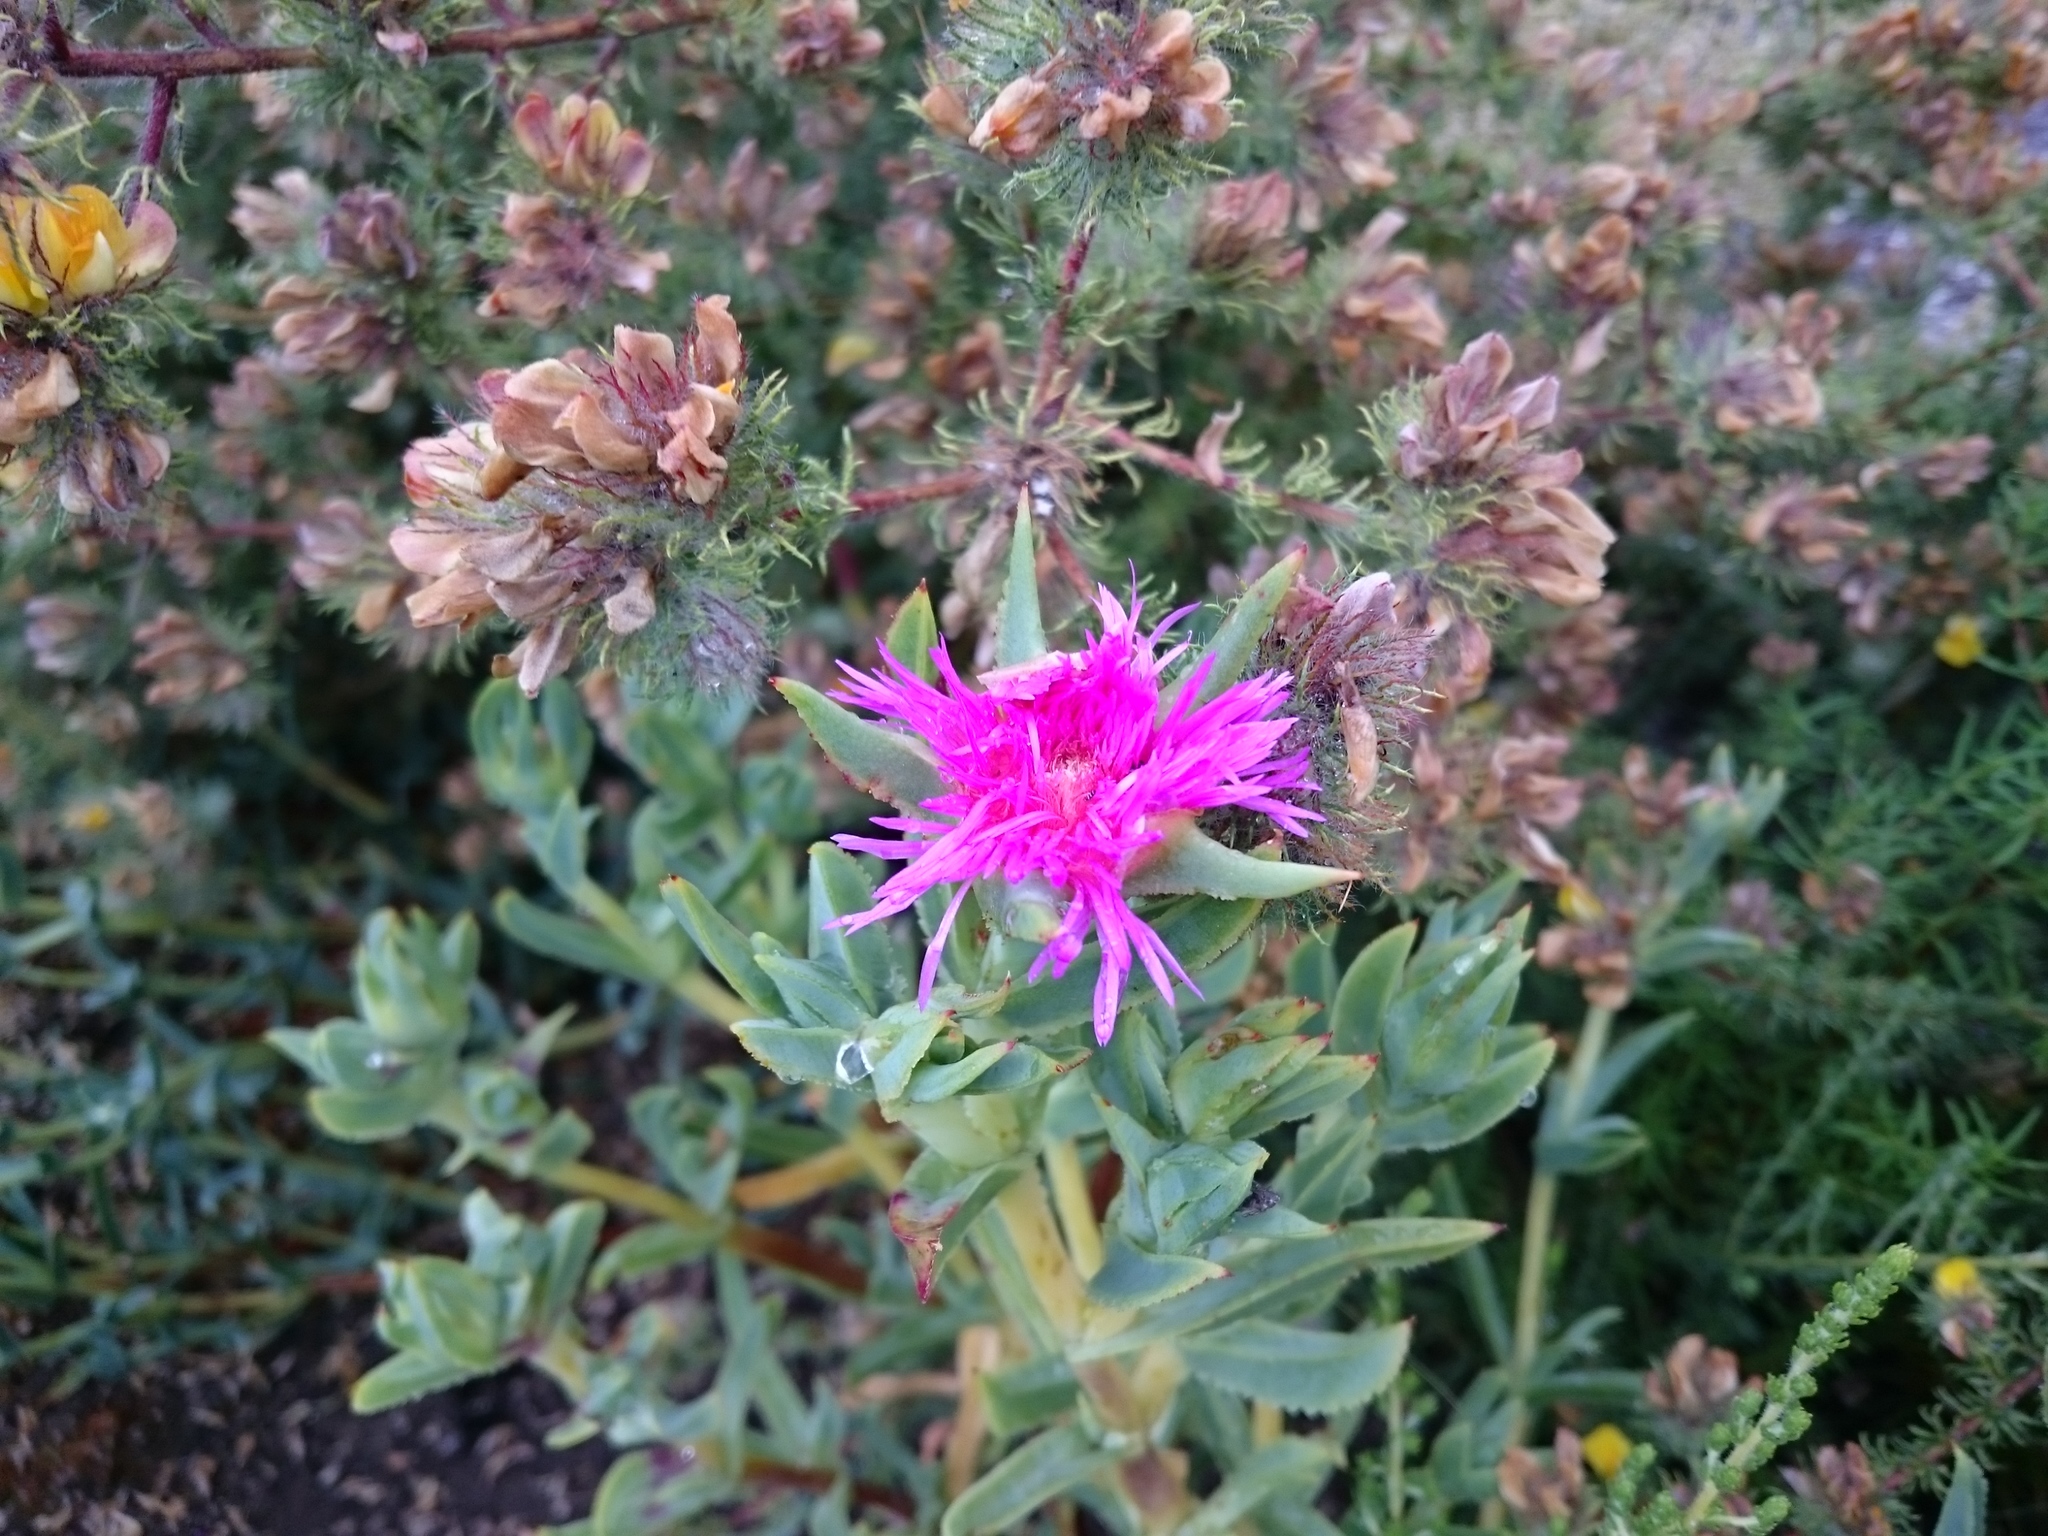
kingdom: Plantae
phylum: Tracheophyta
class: Magnoliopsida
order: Caryophyllales
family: Aizoaceae
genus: Erepsia
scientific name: Erepsia lacera
